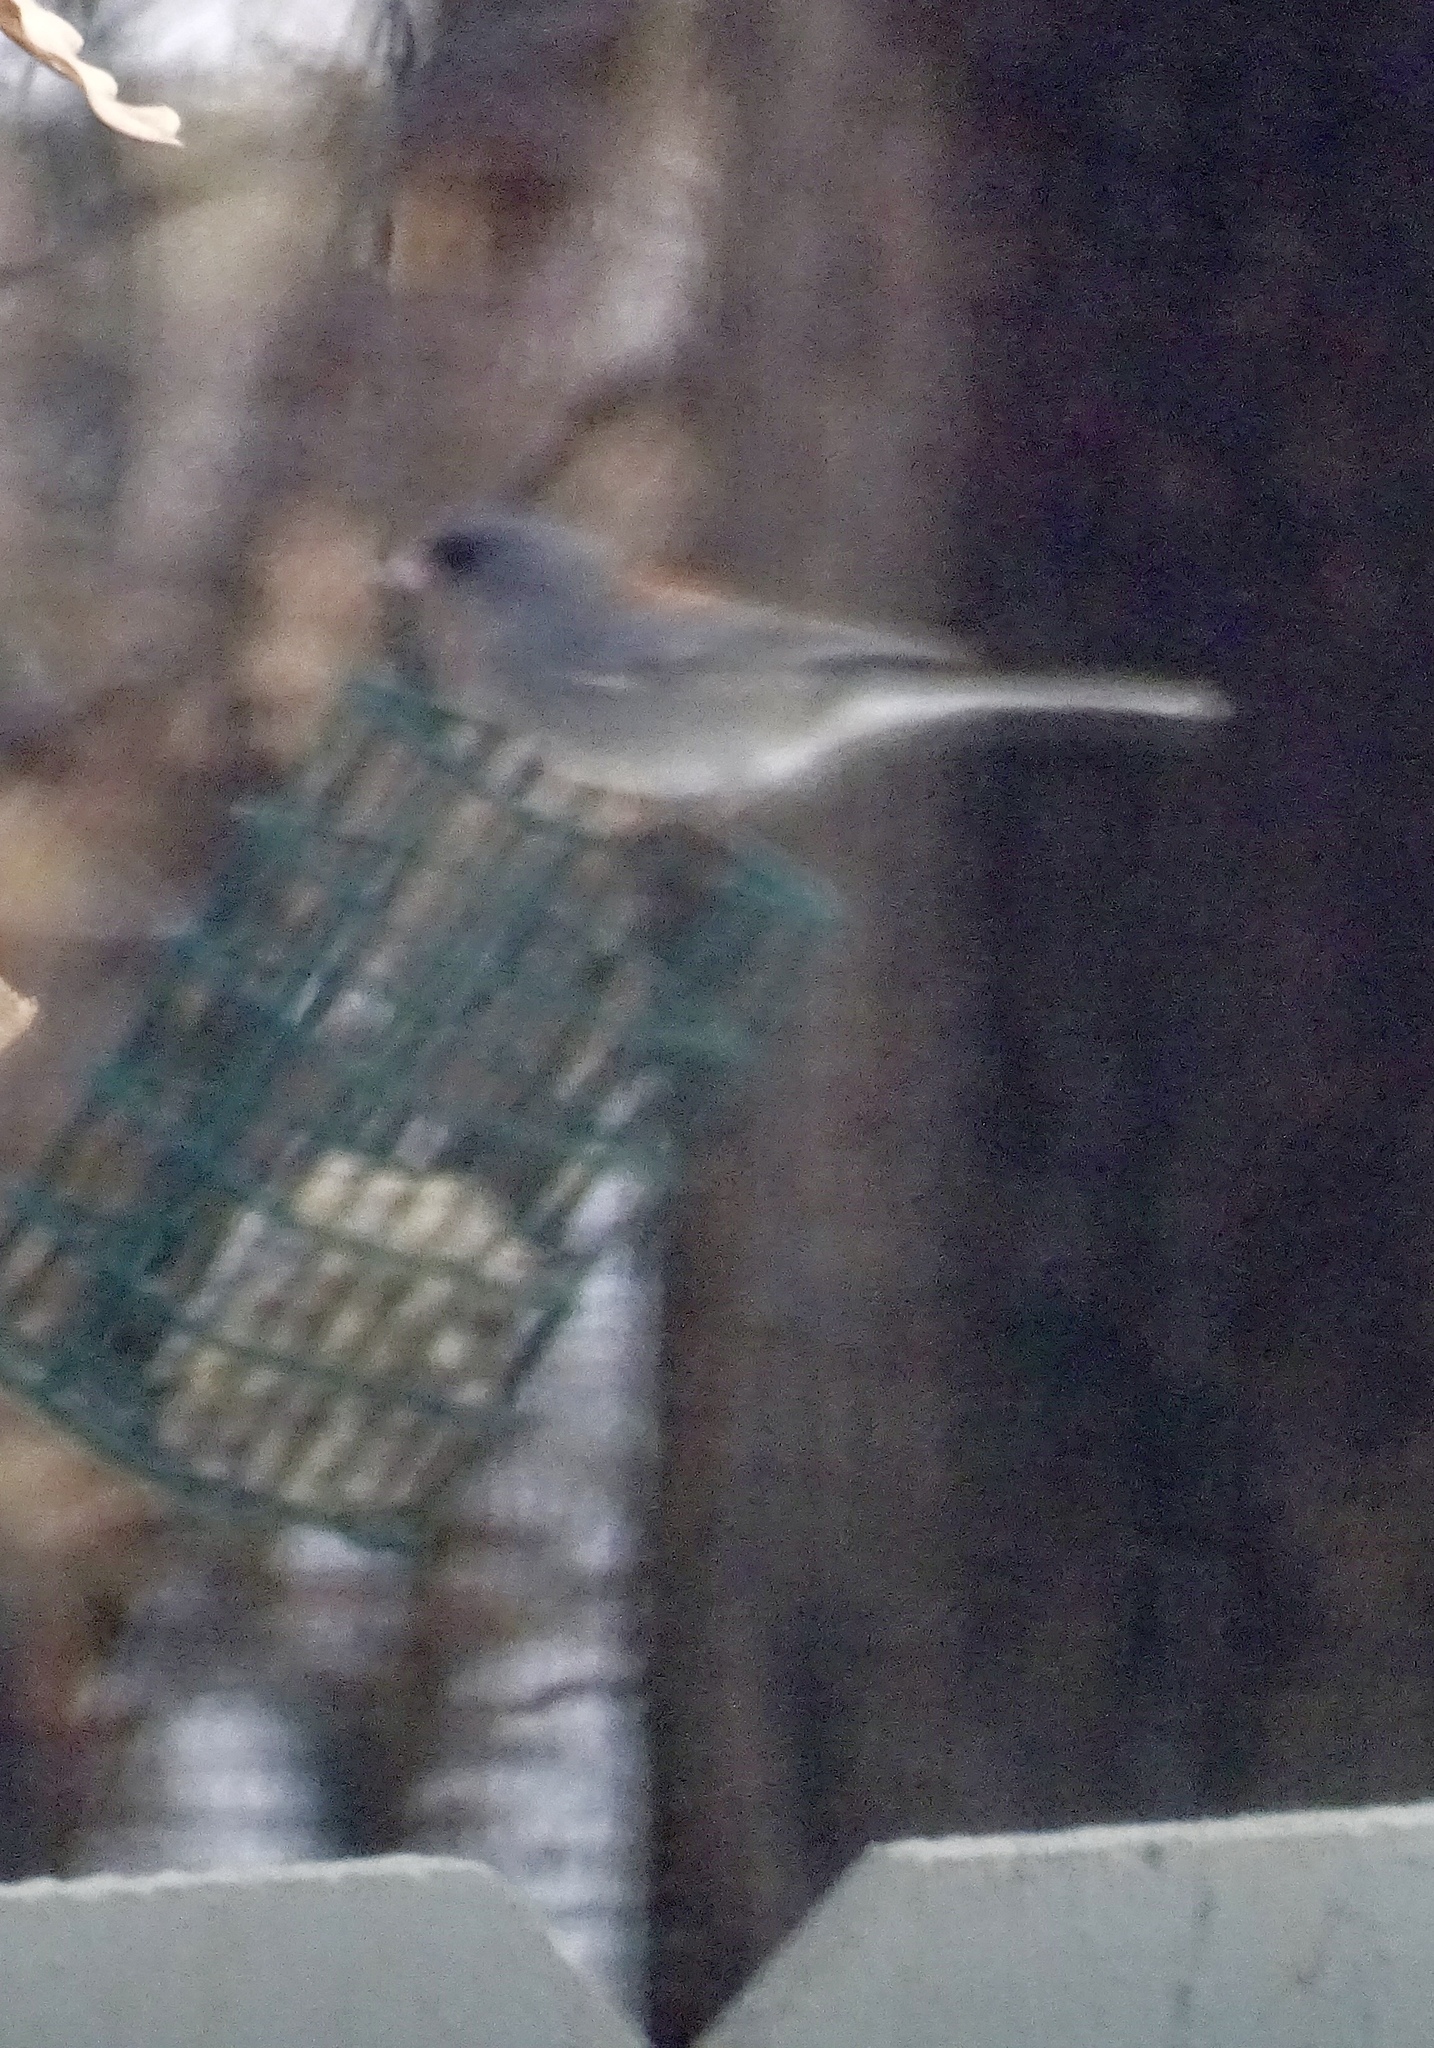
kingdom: Animalia
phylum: Chordata
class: Aves
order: Passeriformes
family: Passerellidae
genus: Junco
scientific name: Junco hyemalis
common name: Dark-eyed junco
